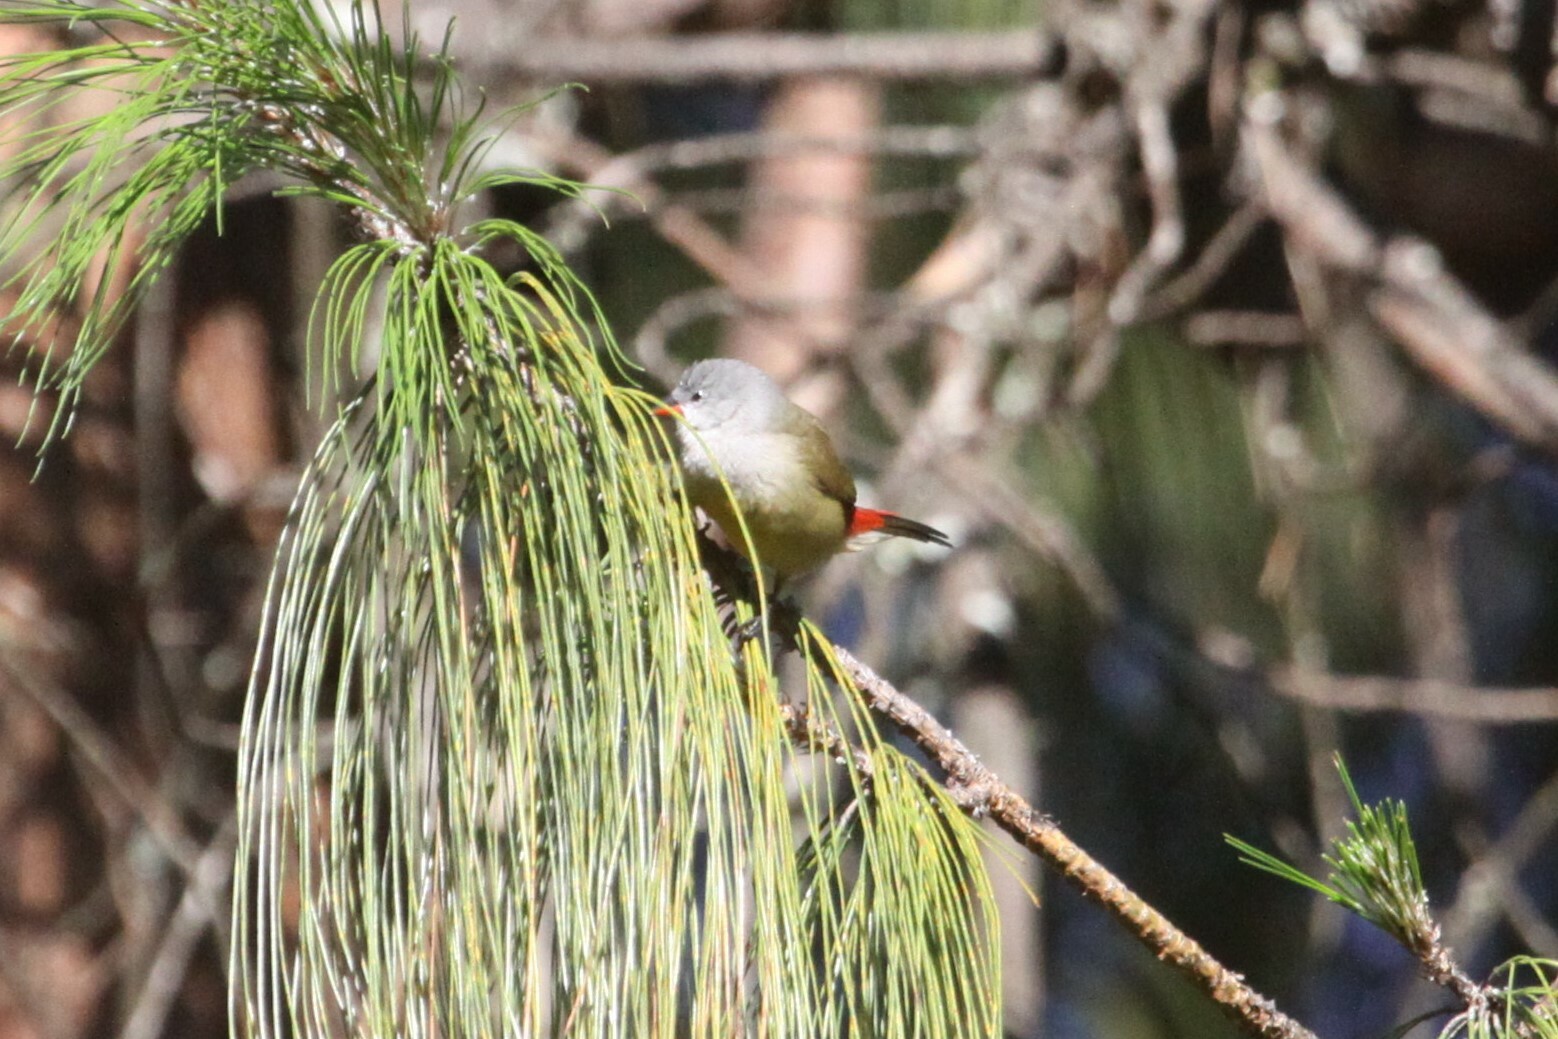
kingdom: Animalia
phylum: Chordata
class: Aves
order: Passeriformes
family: Estrildidae
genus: Coccopygia
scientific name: Coccopygia quartinia
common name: Yellow-bellied waxbill
